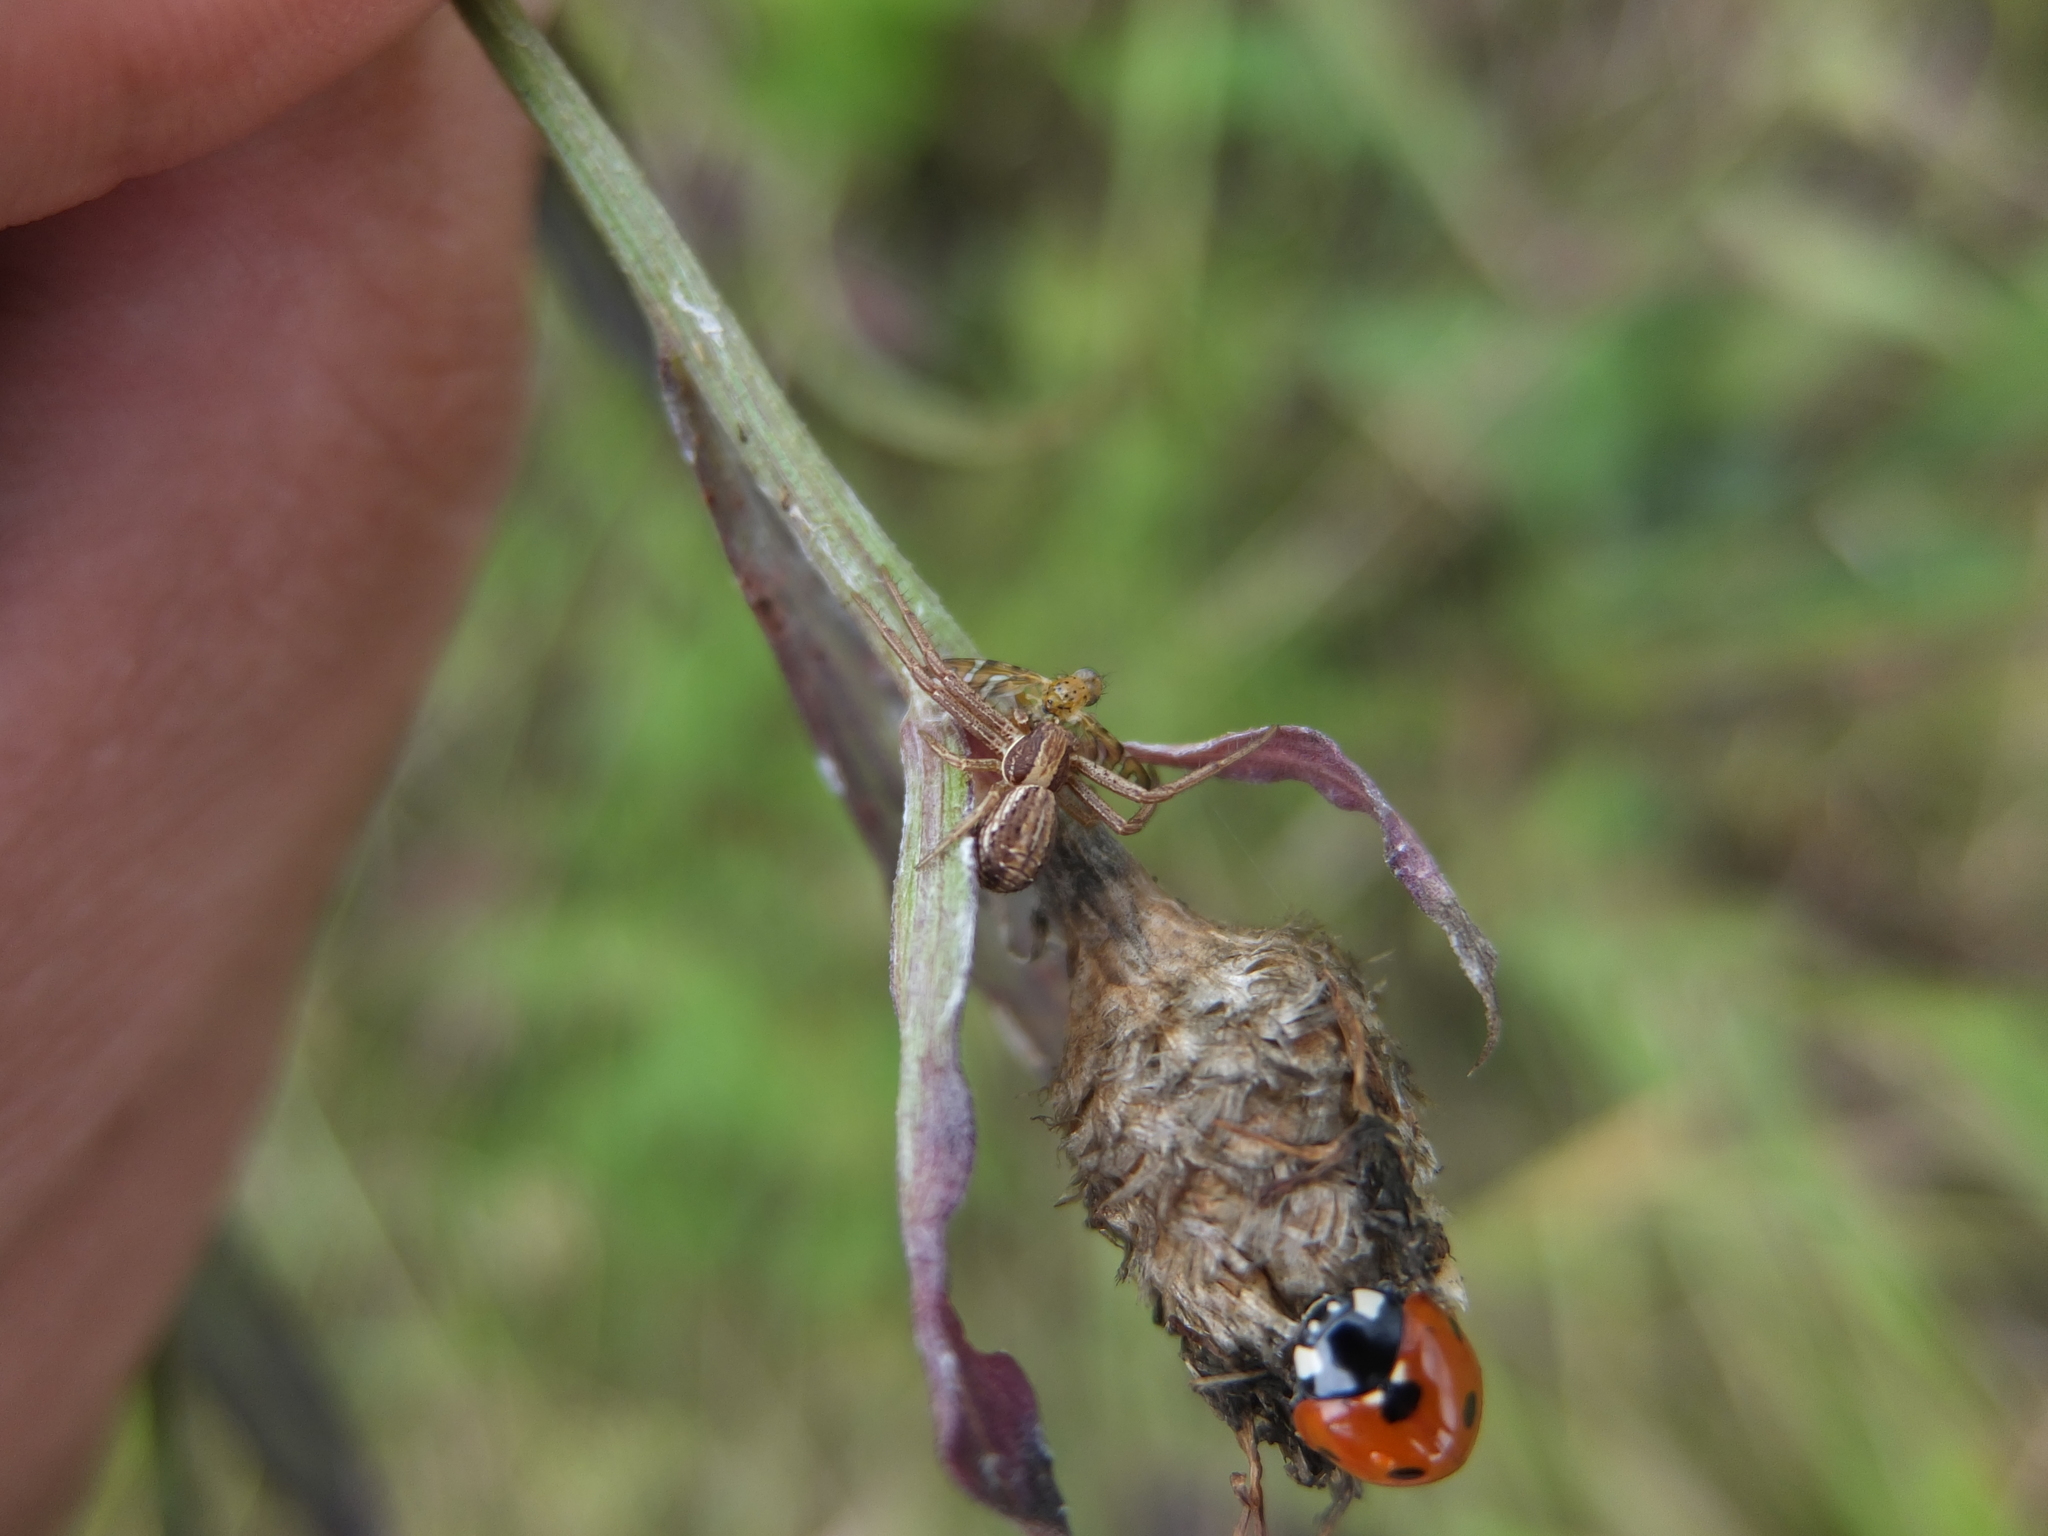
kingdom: Animalia
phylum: Arthropoda
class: Arachnida
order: Araneae
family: Thomisidae
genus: Spiracme
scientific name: Spiracme striatipes
